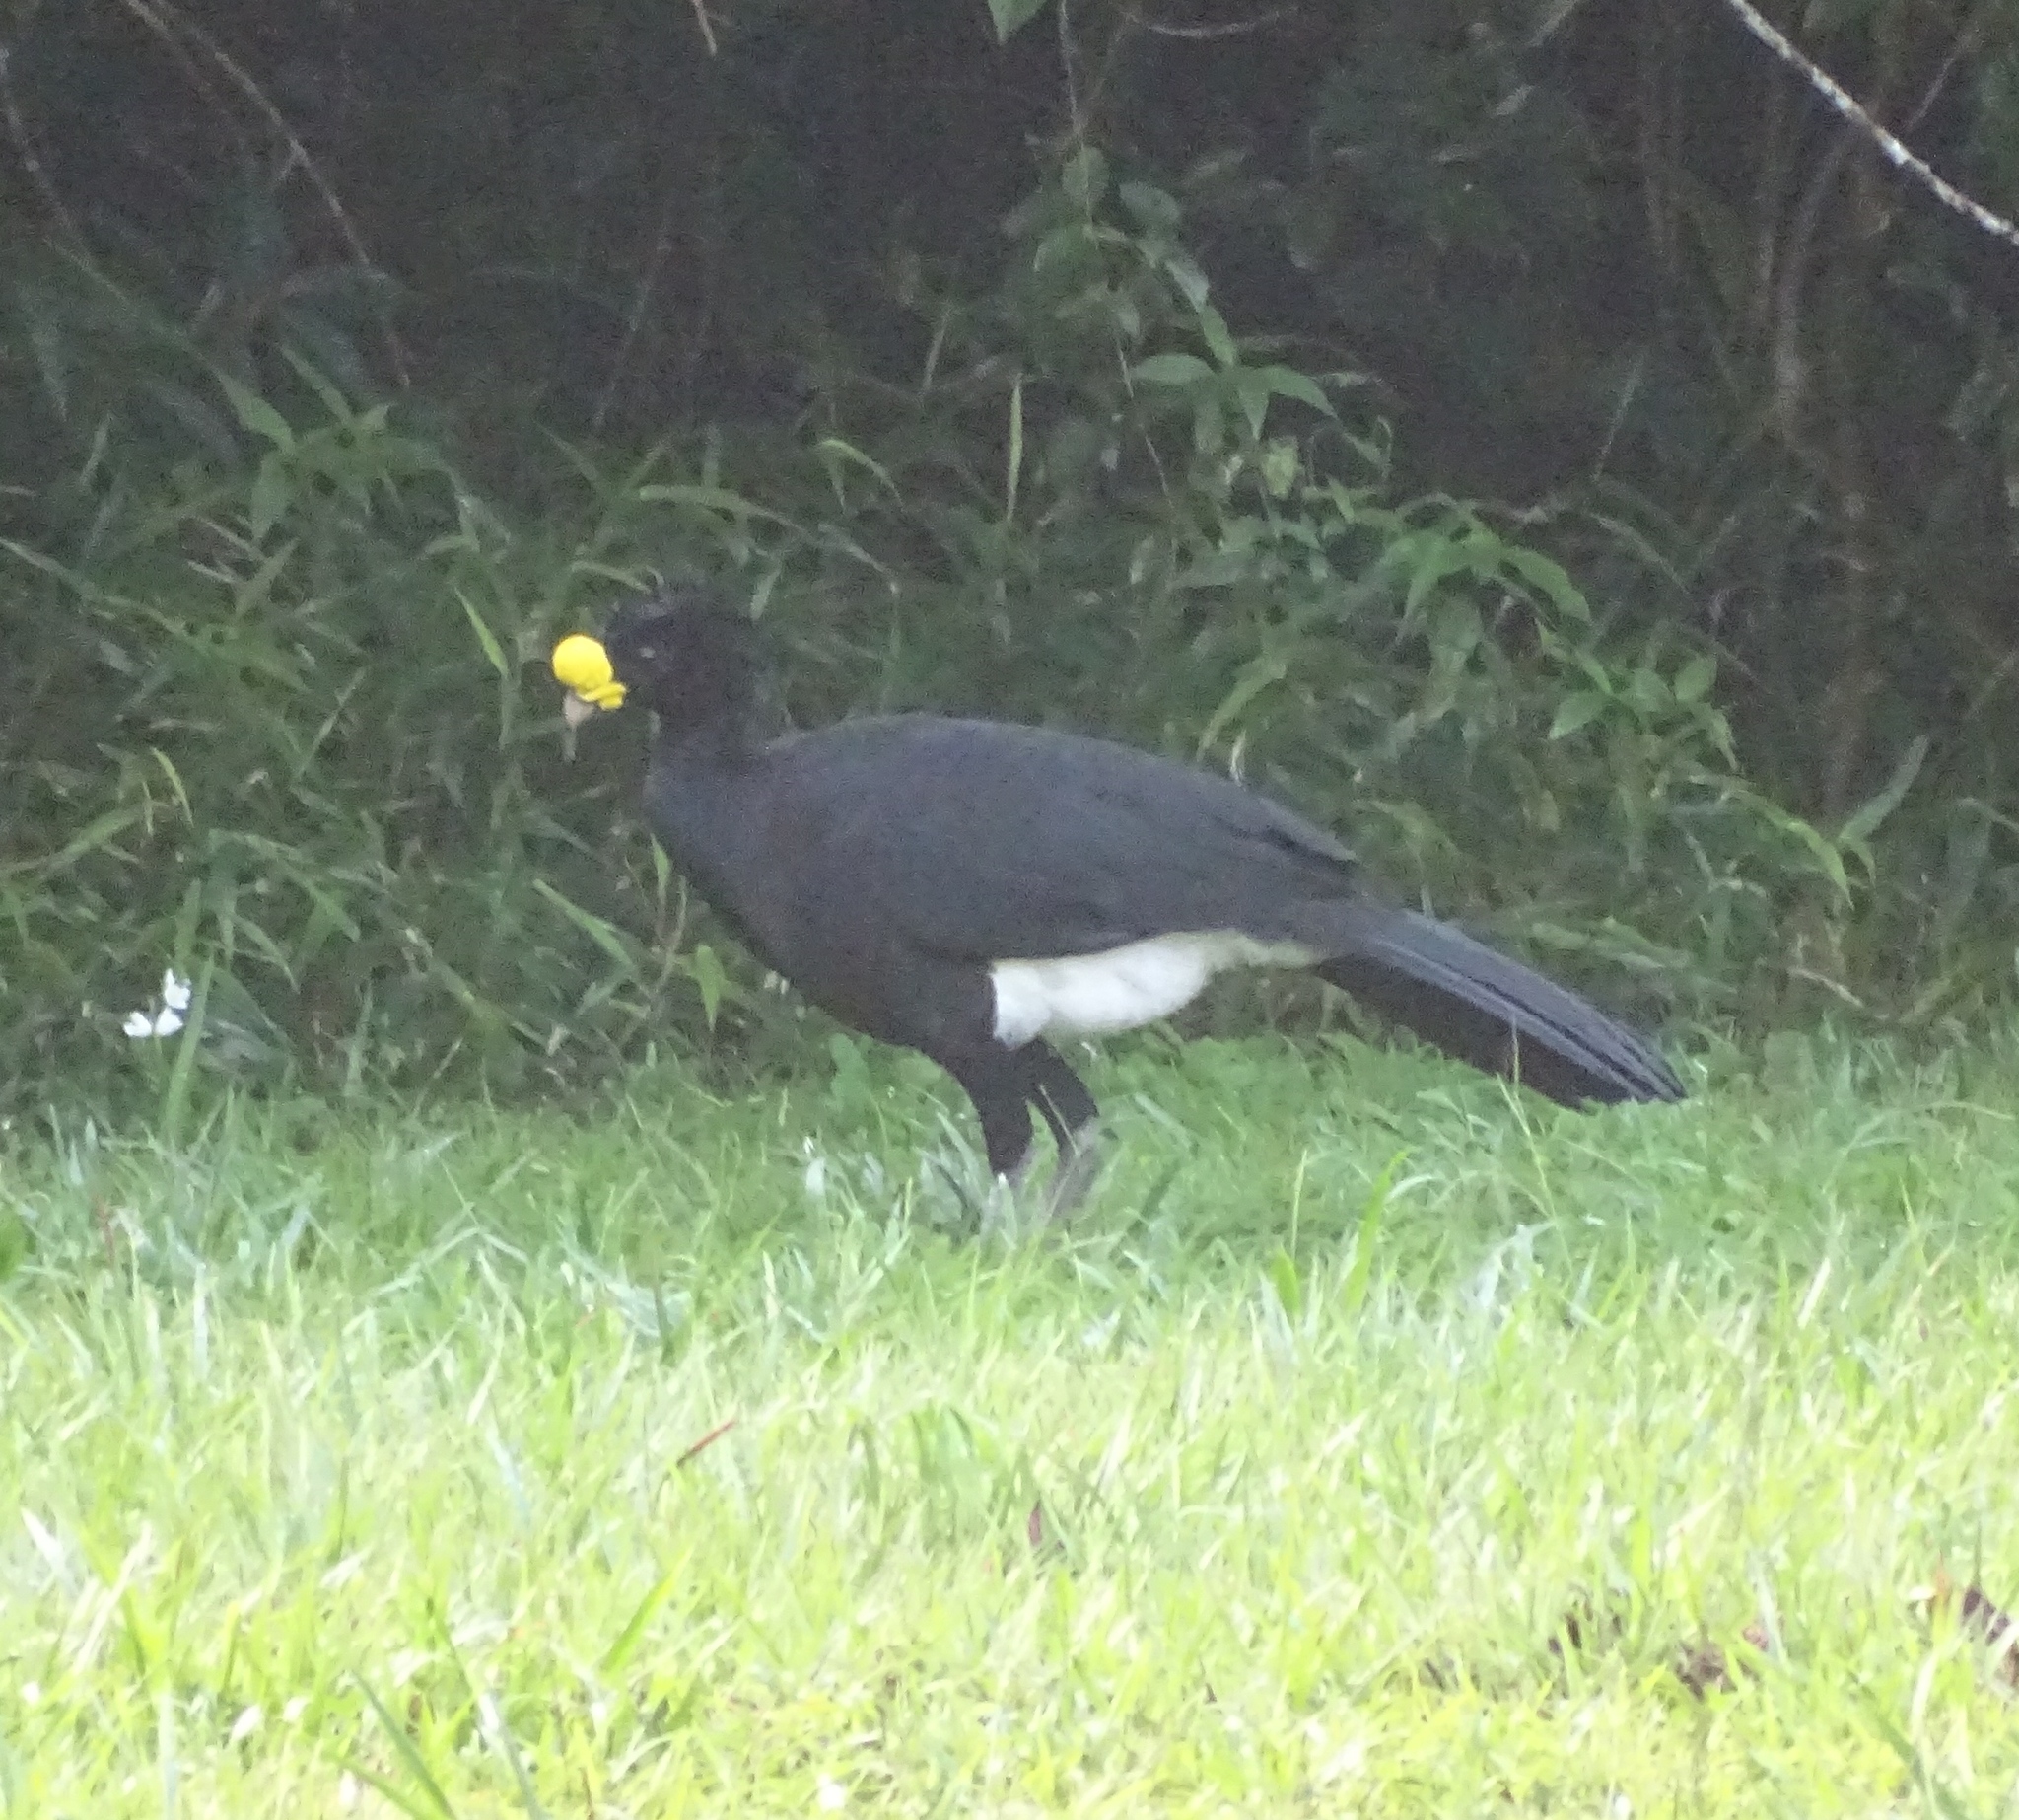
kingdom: Animalia
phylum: Chordata
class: Aves
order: Galliformes
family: Cracidae
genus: Crax
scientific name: Crax rubra
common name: Great curassow
